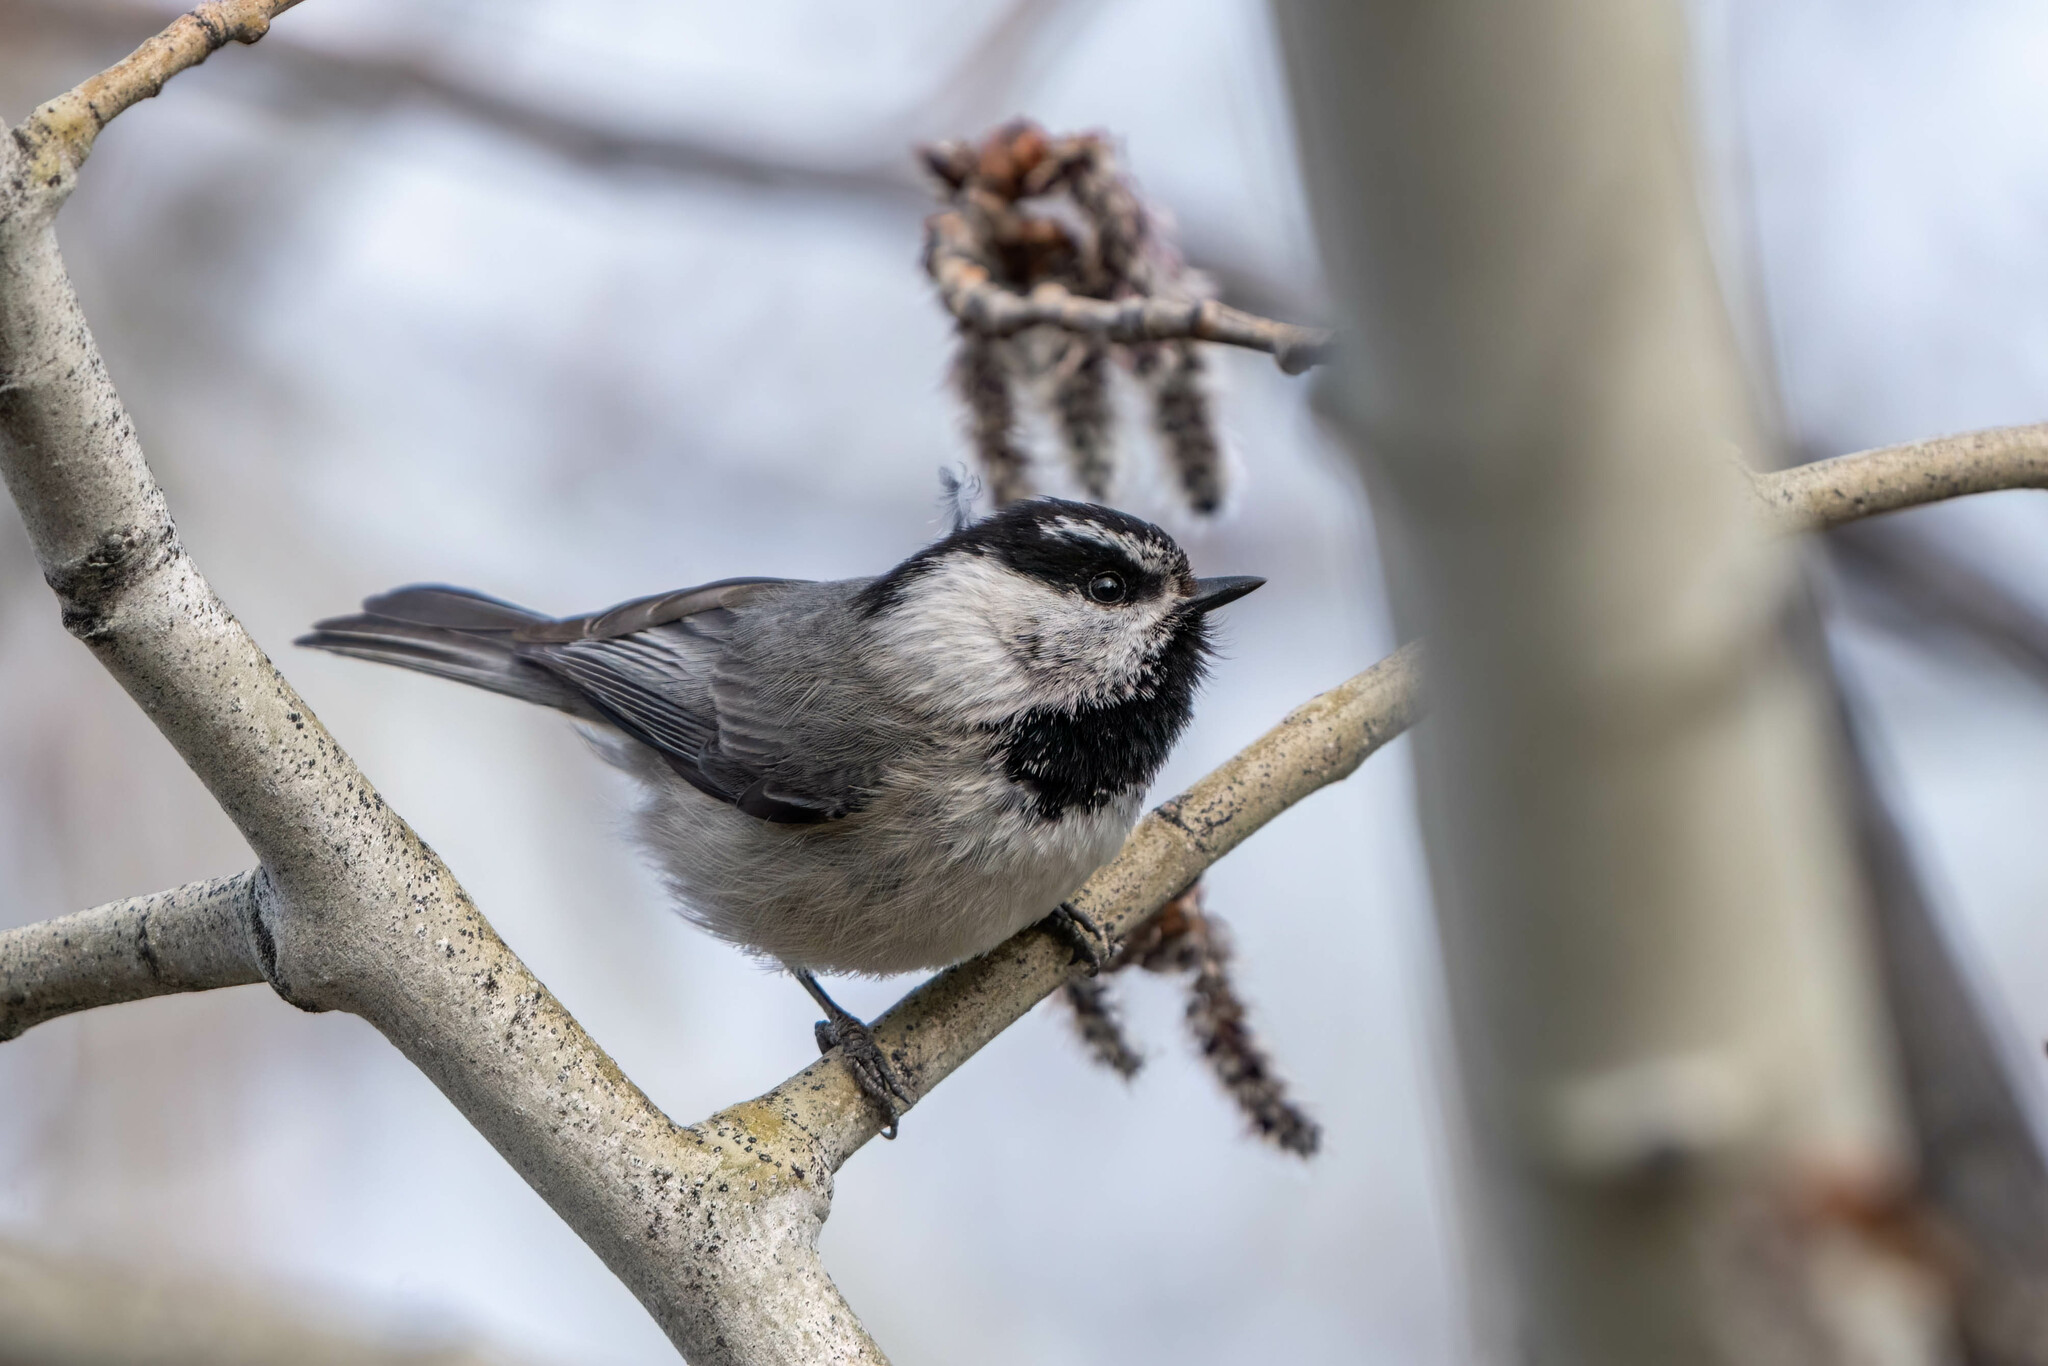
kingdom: Animalia
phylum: Chordata
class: Aves
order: Passeriformes
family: Paridae
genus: Poecile
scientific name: Poecile gambeli
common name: Mountain chickadee
